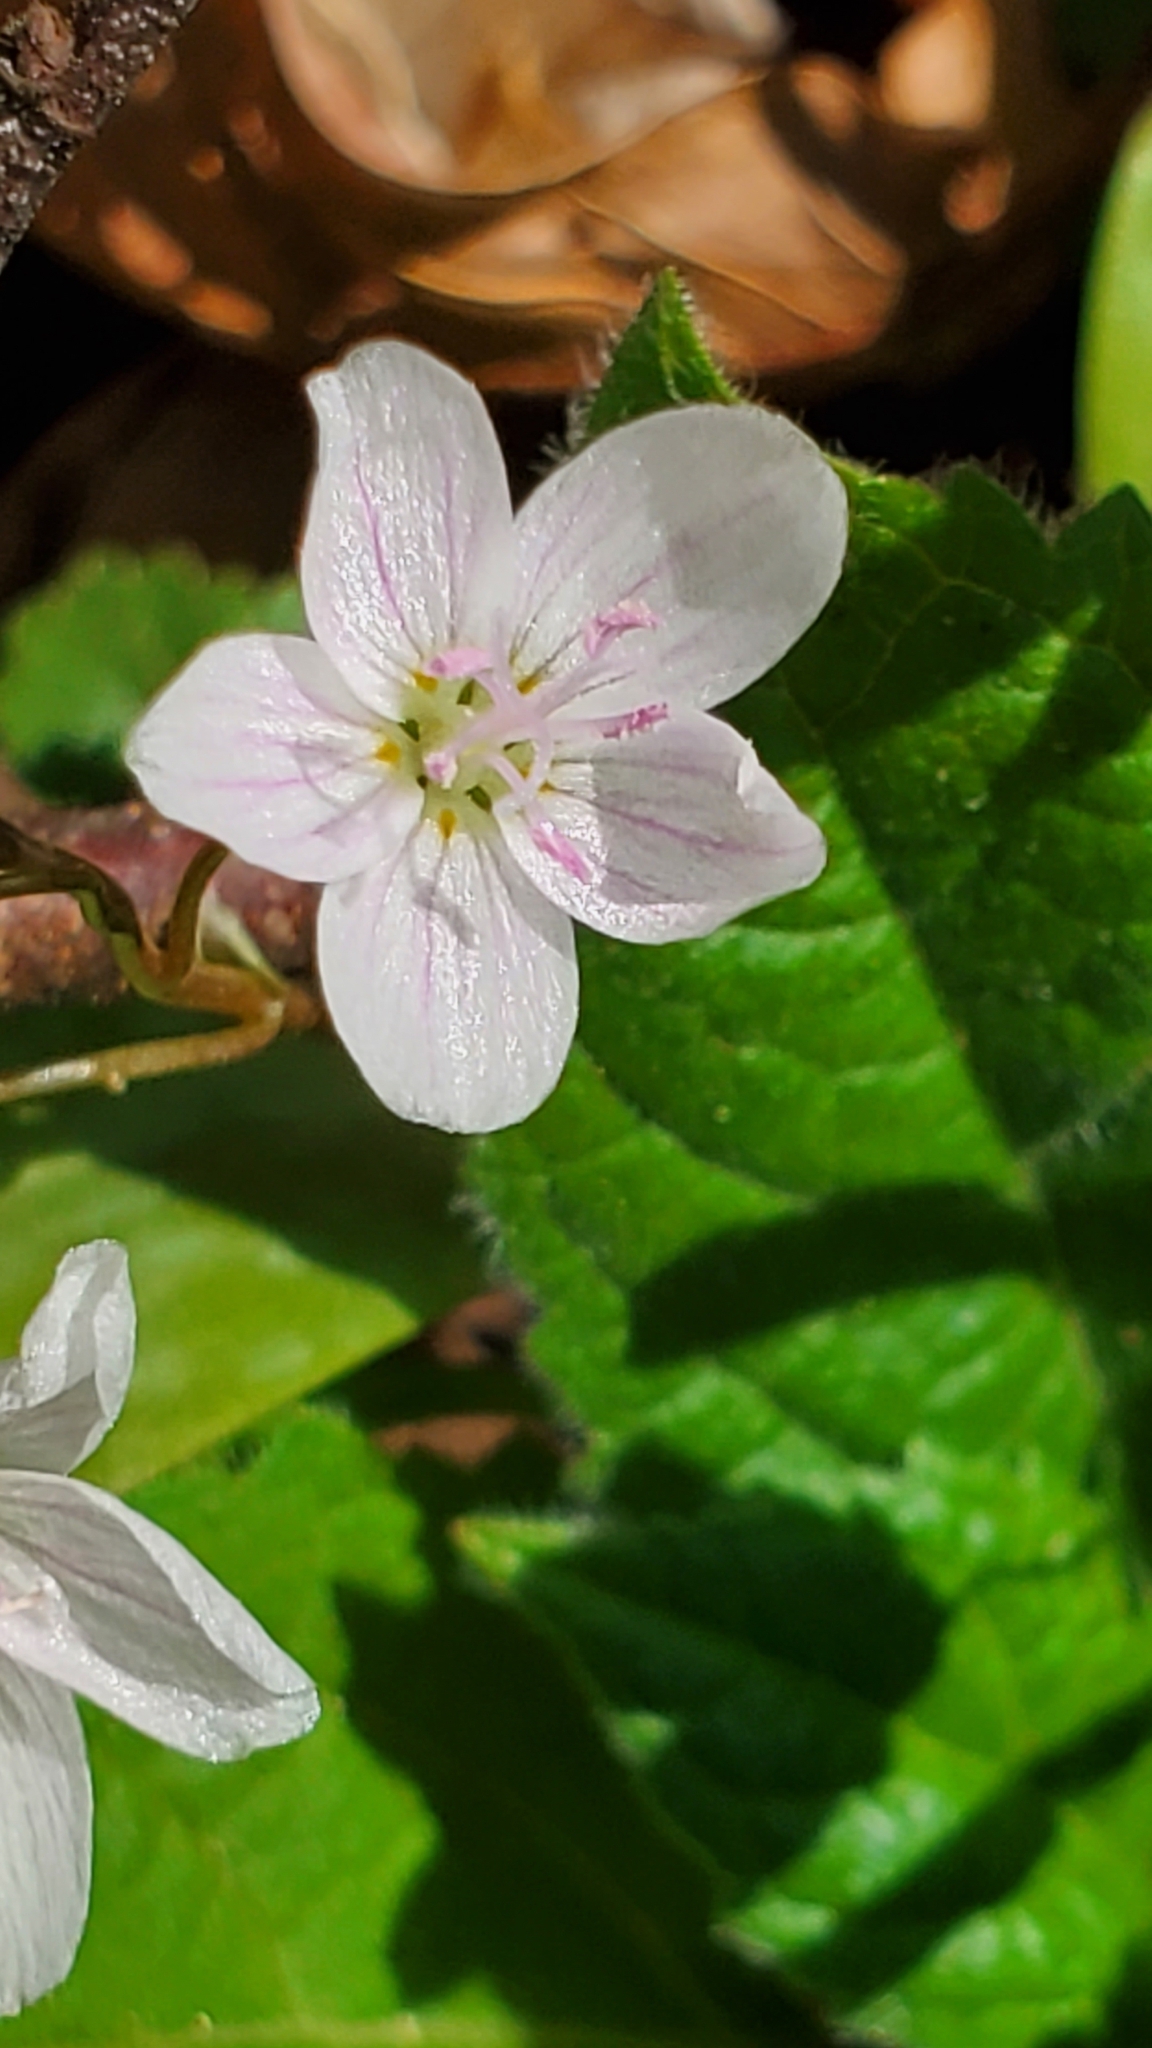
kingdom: Plantae
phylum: Tracheophyta
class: Magnoliopsida
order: Caryophyllales
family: Montiaceae
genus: Claytonia
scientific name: Claytonia virginica
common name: Virginia springbeauty
